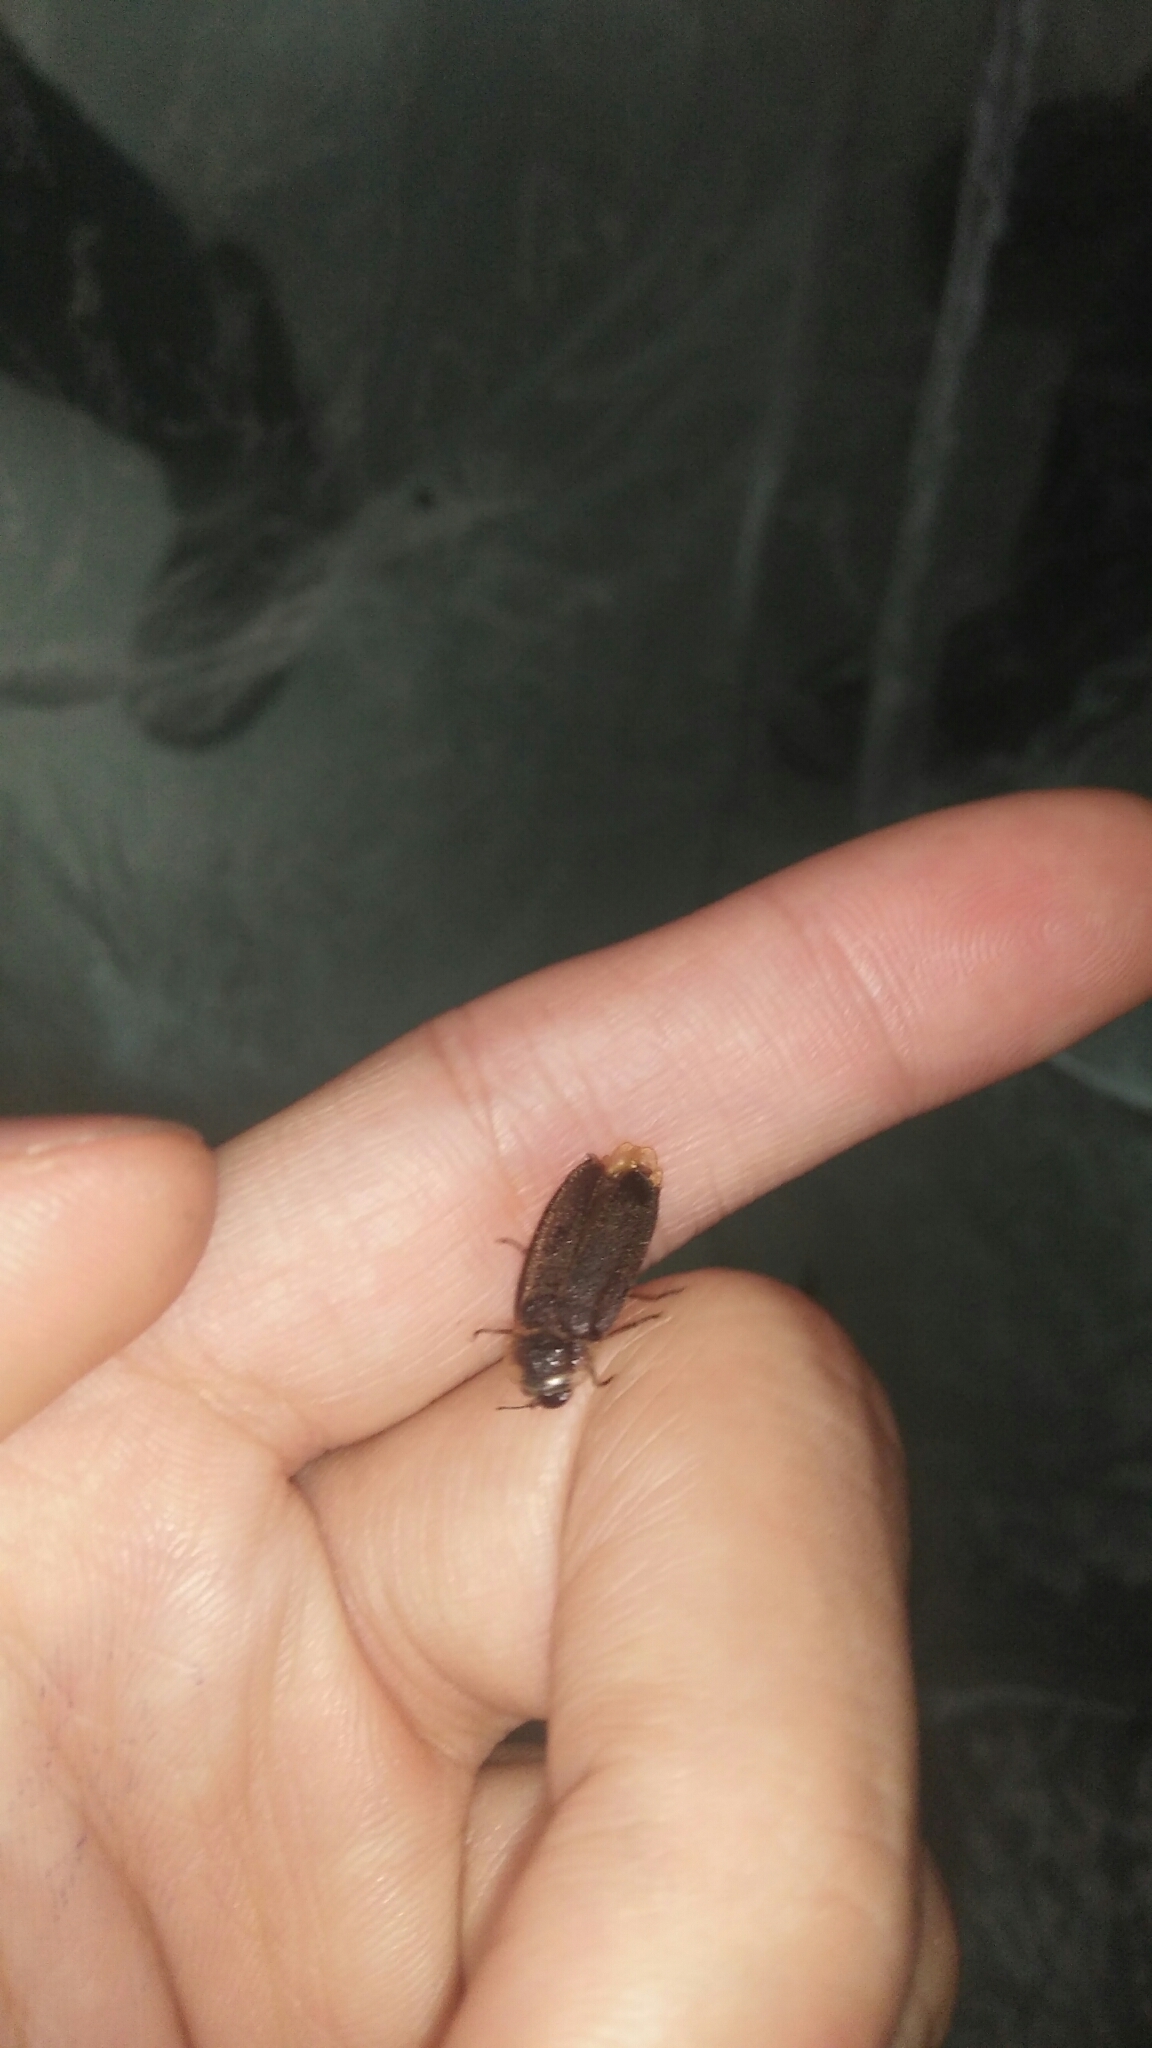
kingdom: Animalia
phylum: Arthropoda
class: Insecta
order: Coleoptera
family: Lampyridae
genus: Lamprigera
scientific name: Lamprigera yunnana
